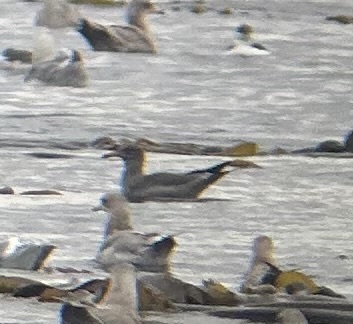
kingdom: Animalia
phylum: Chordata
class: Aves
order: Charadriiformes
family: Laridae
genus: Larus
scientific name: Larus heermanni
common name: Heermann's gull
